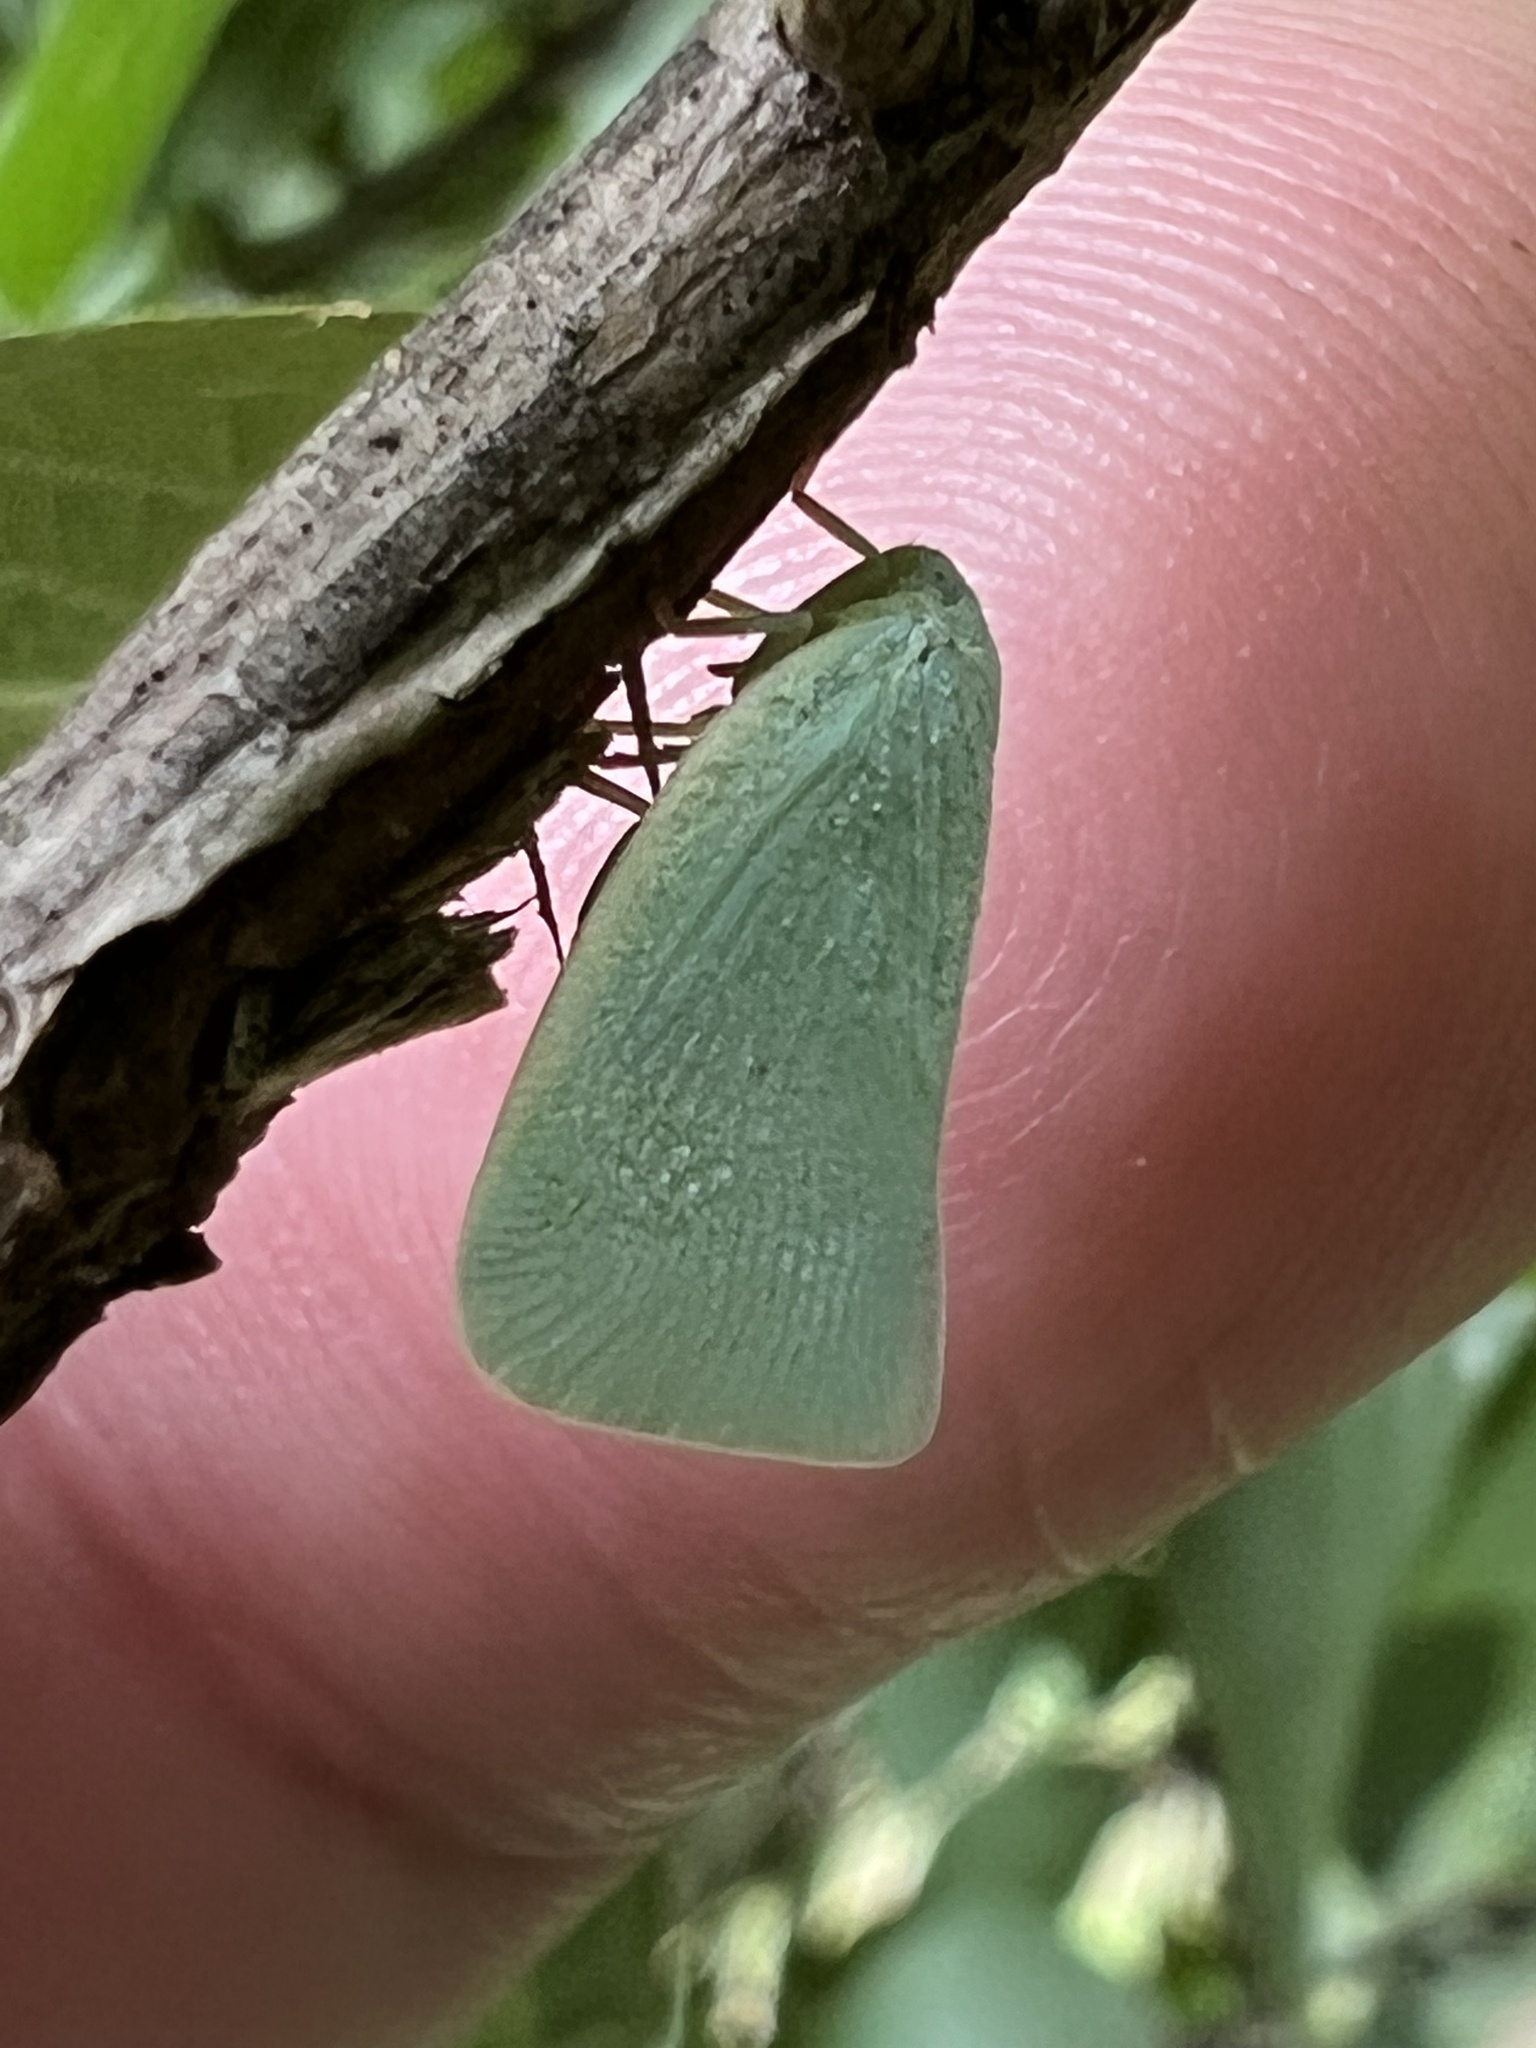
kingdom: Animalia
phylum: Arthropoda
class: Insecta
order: Hemiptera
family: Flatidae
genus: Flatormenis
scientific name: Flatormenis proxima
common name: Northern flatid planthopper
